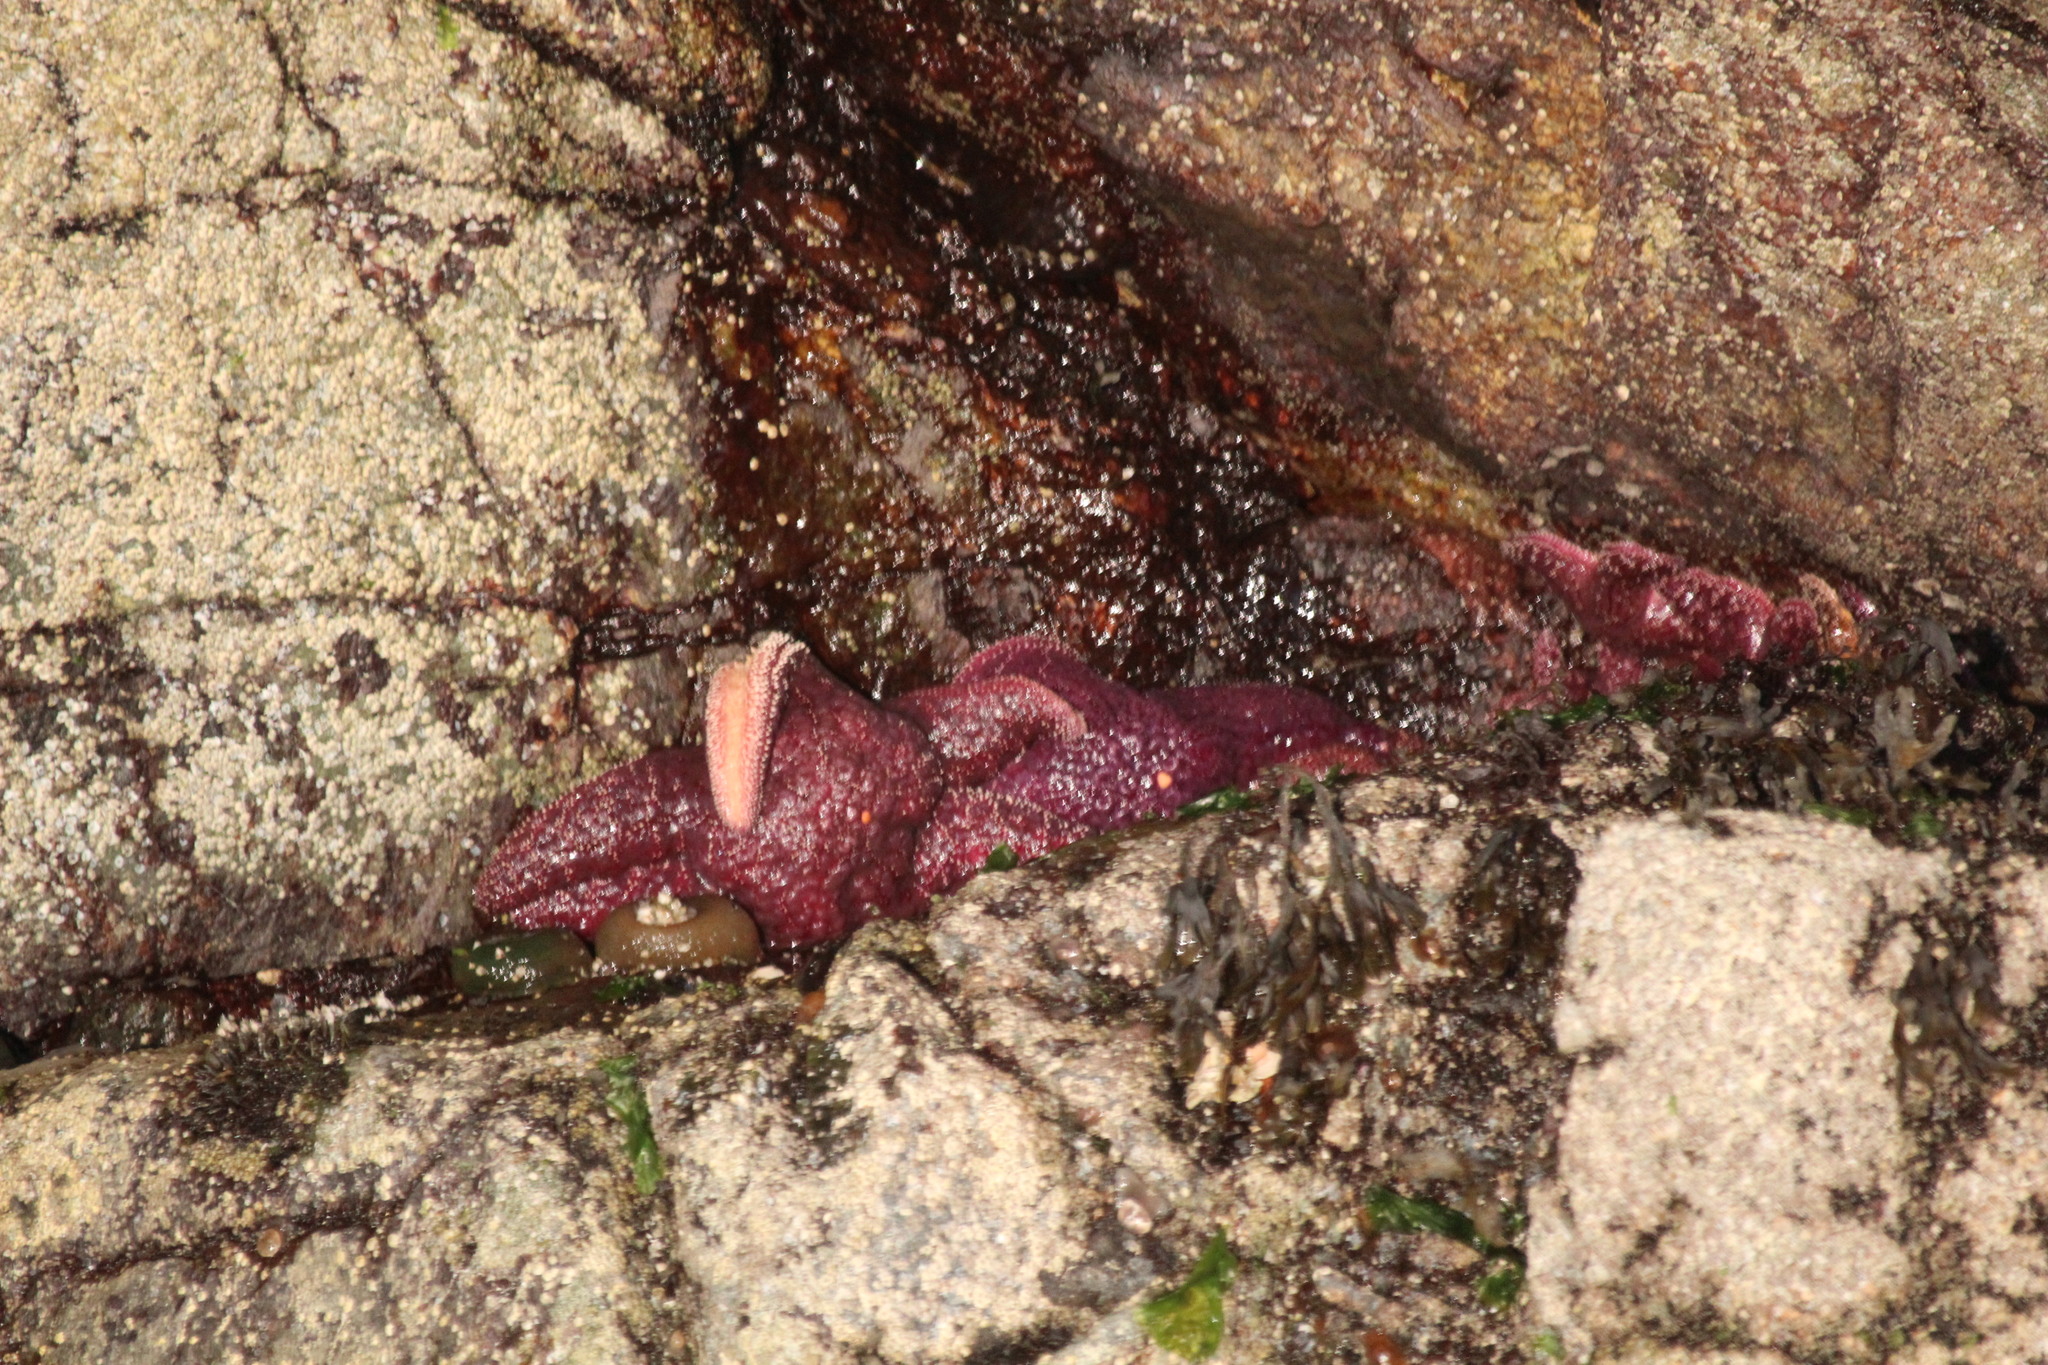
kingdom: Animalia
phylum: Echinodermata
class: Asteroidea
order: Forcipulatida
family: Asteriidae
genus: Pisaster
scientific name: Pisaster ochraceus
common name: Ochre stars
